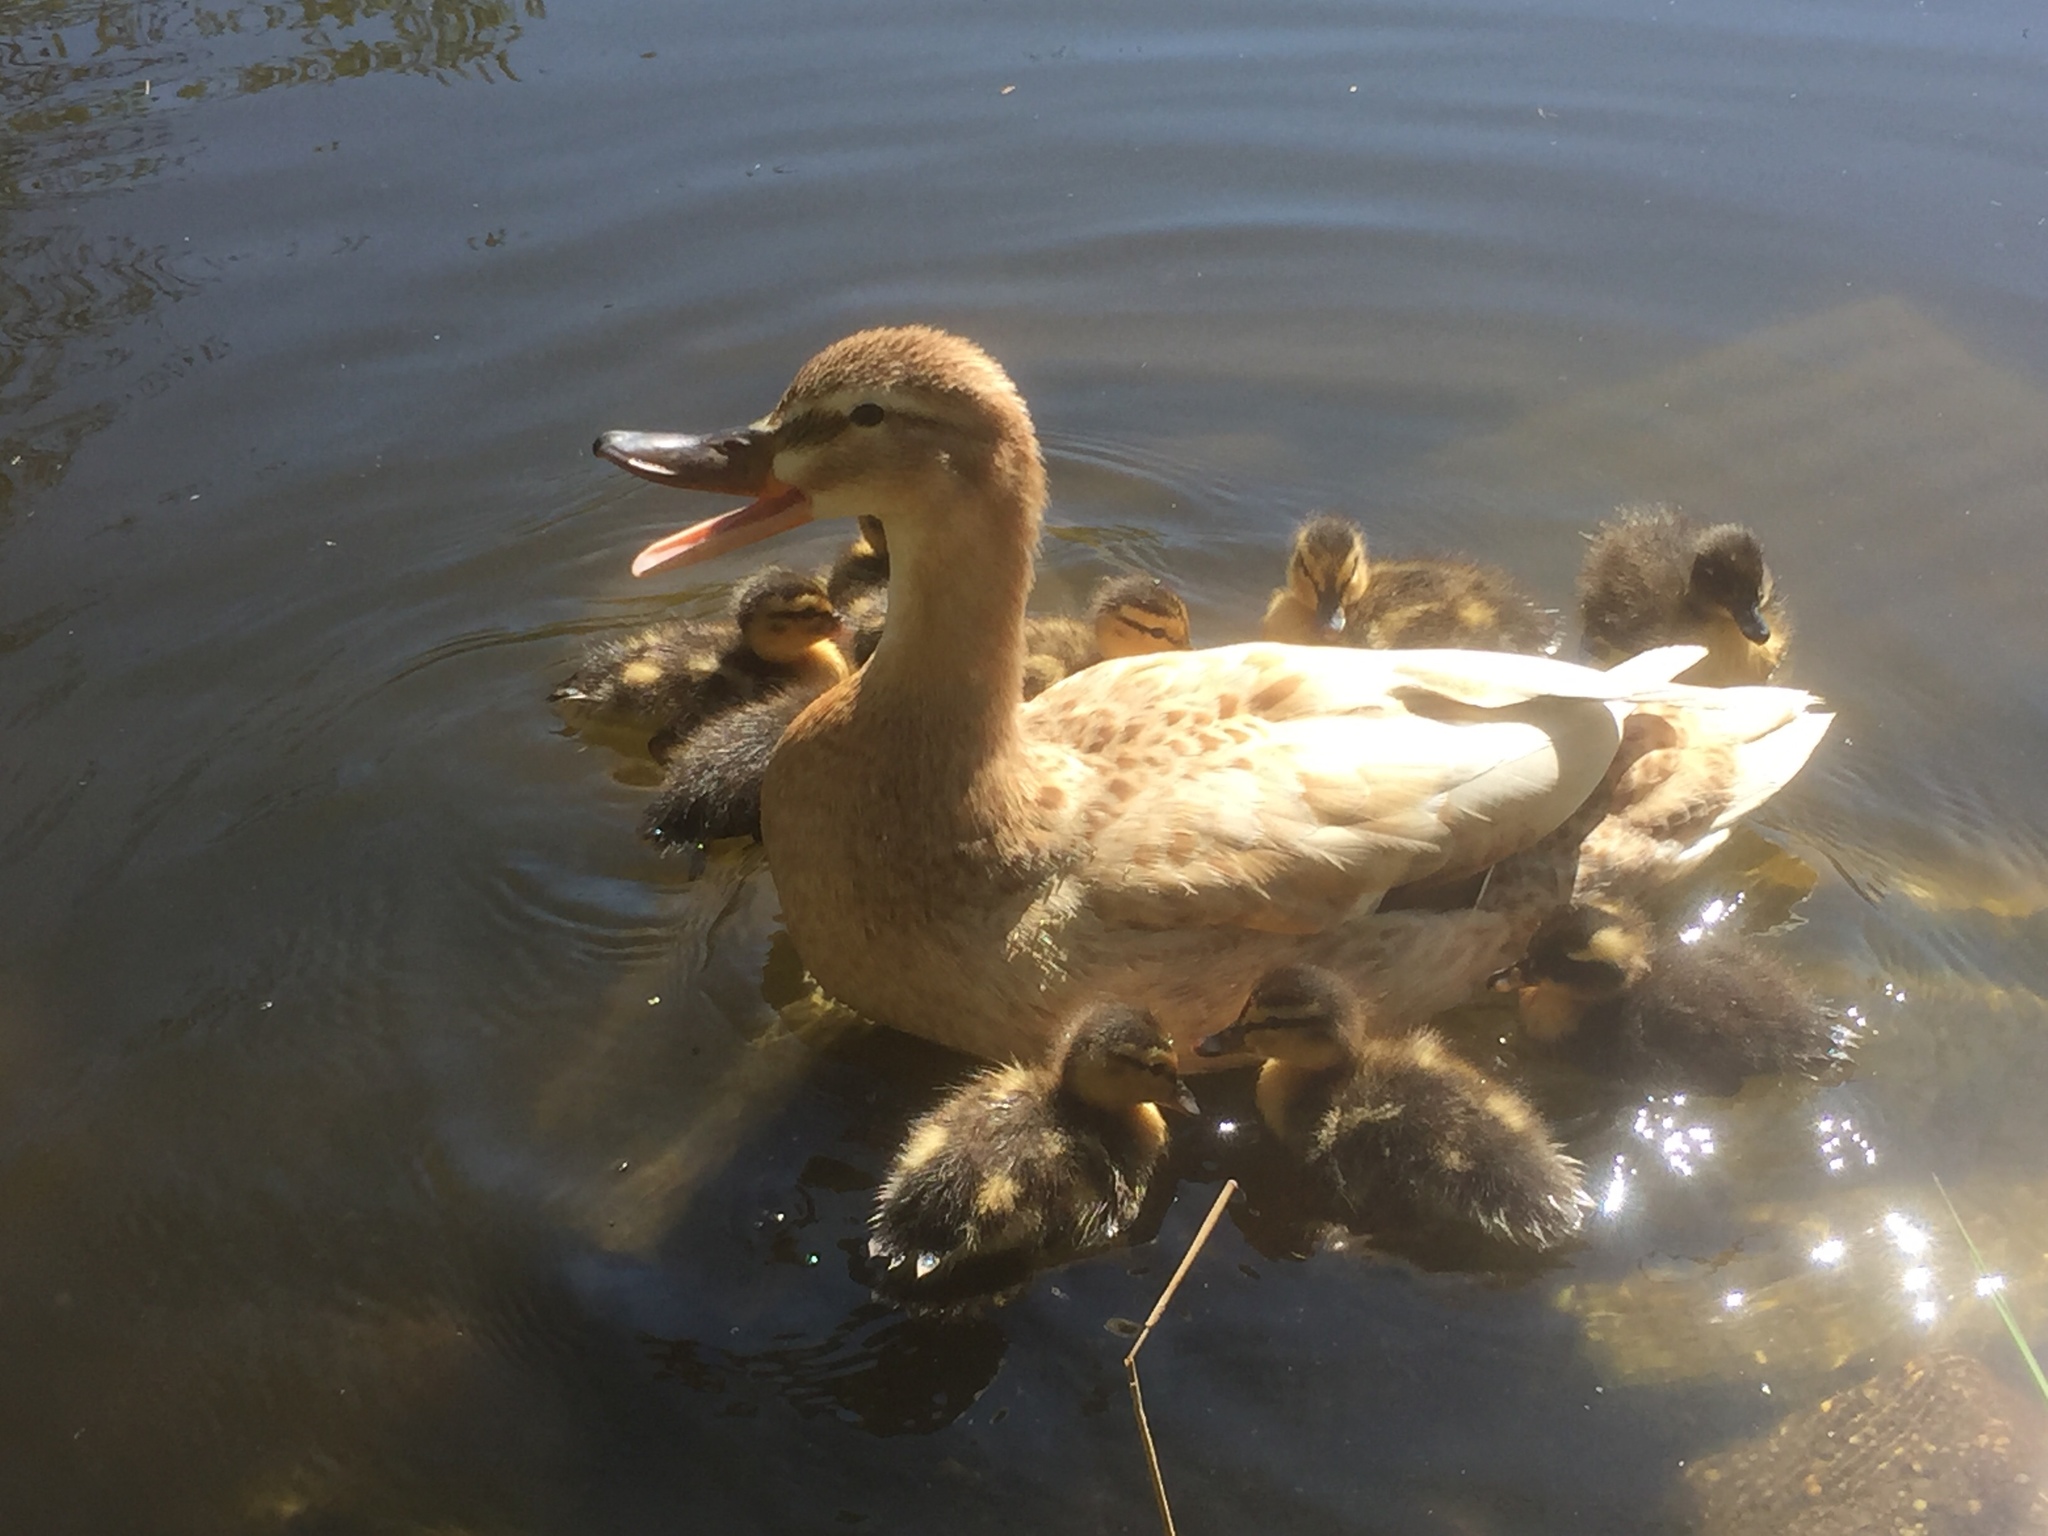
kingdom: Animalia
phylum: Chordata
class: Aves
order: Anseriformes
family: Anatidae
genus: Anas
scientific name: Anas platyrhynchos
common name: Mallard
